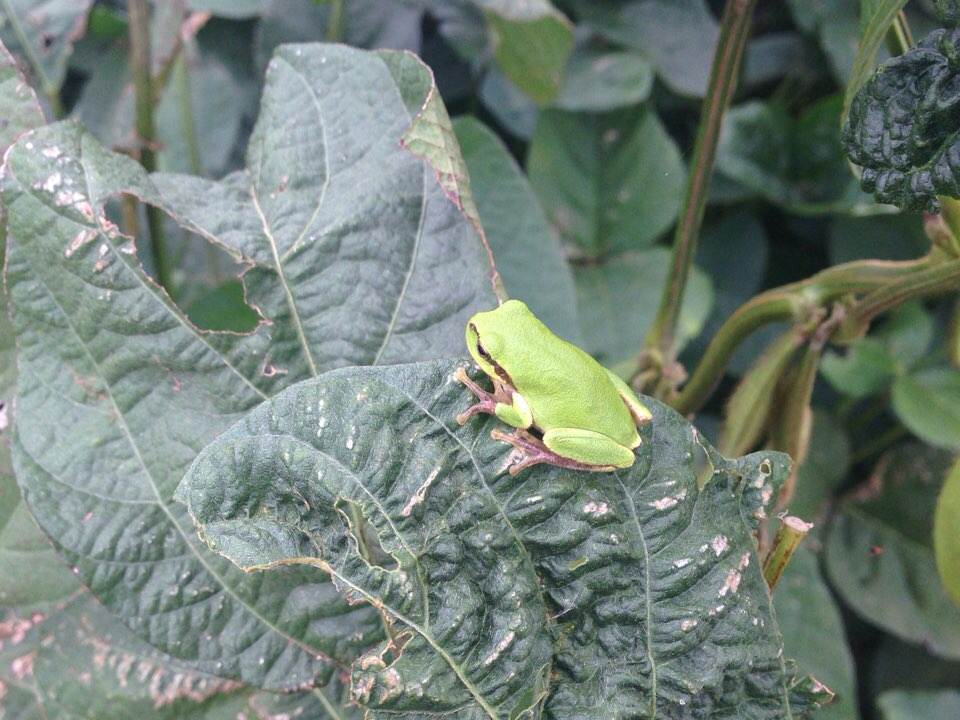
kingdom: Animalia
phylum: Chordata
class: Amphibia
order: Anura
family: Hylidae
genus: Dryophytes
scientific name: Dryophytes japonicus
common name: Japanese treefrog
